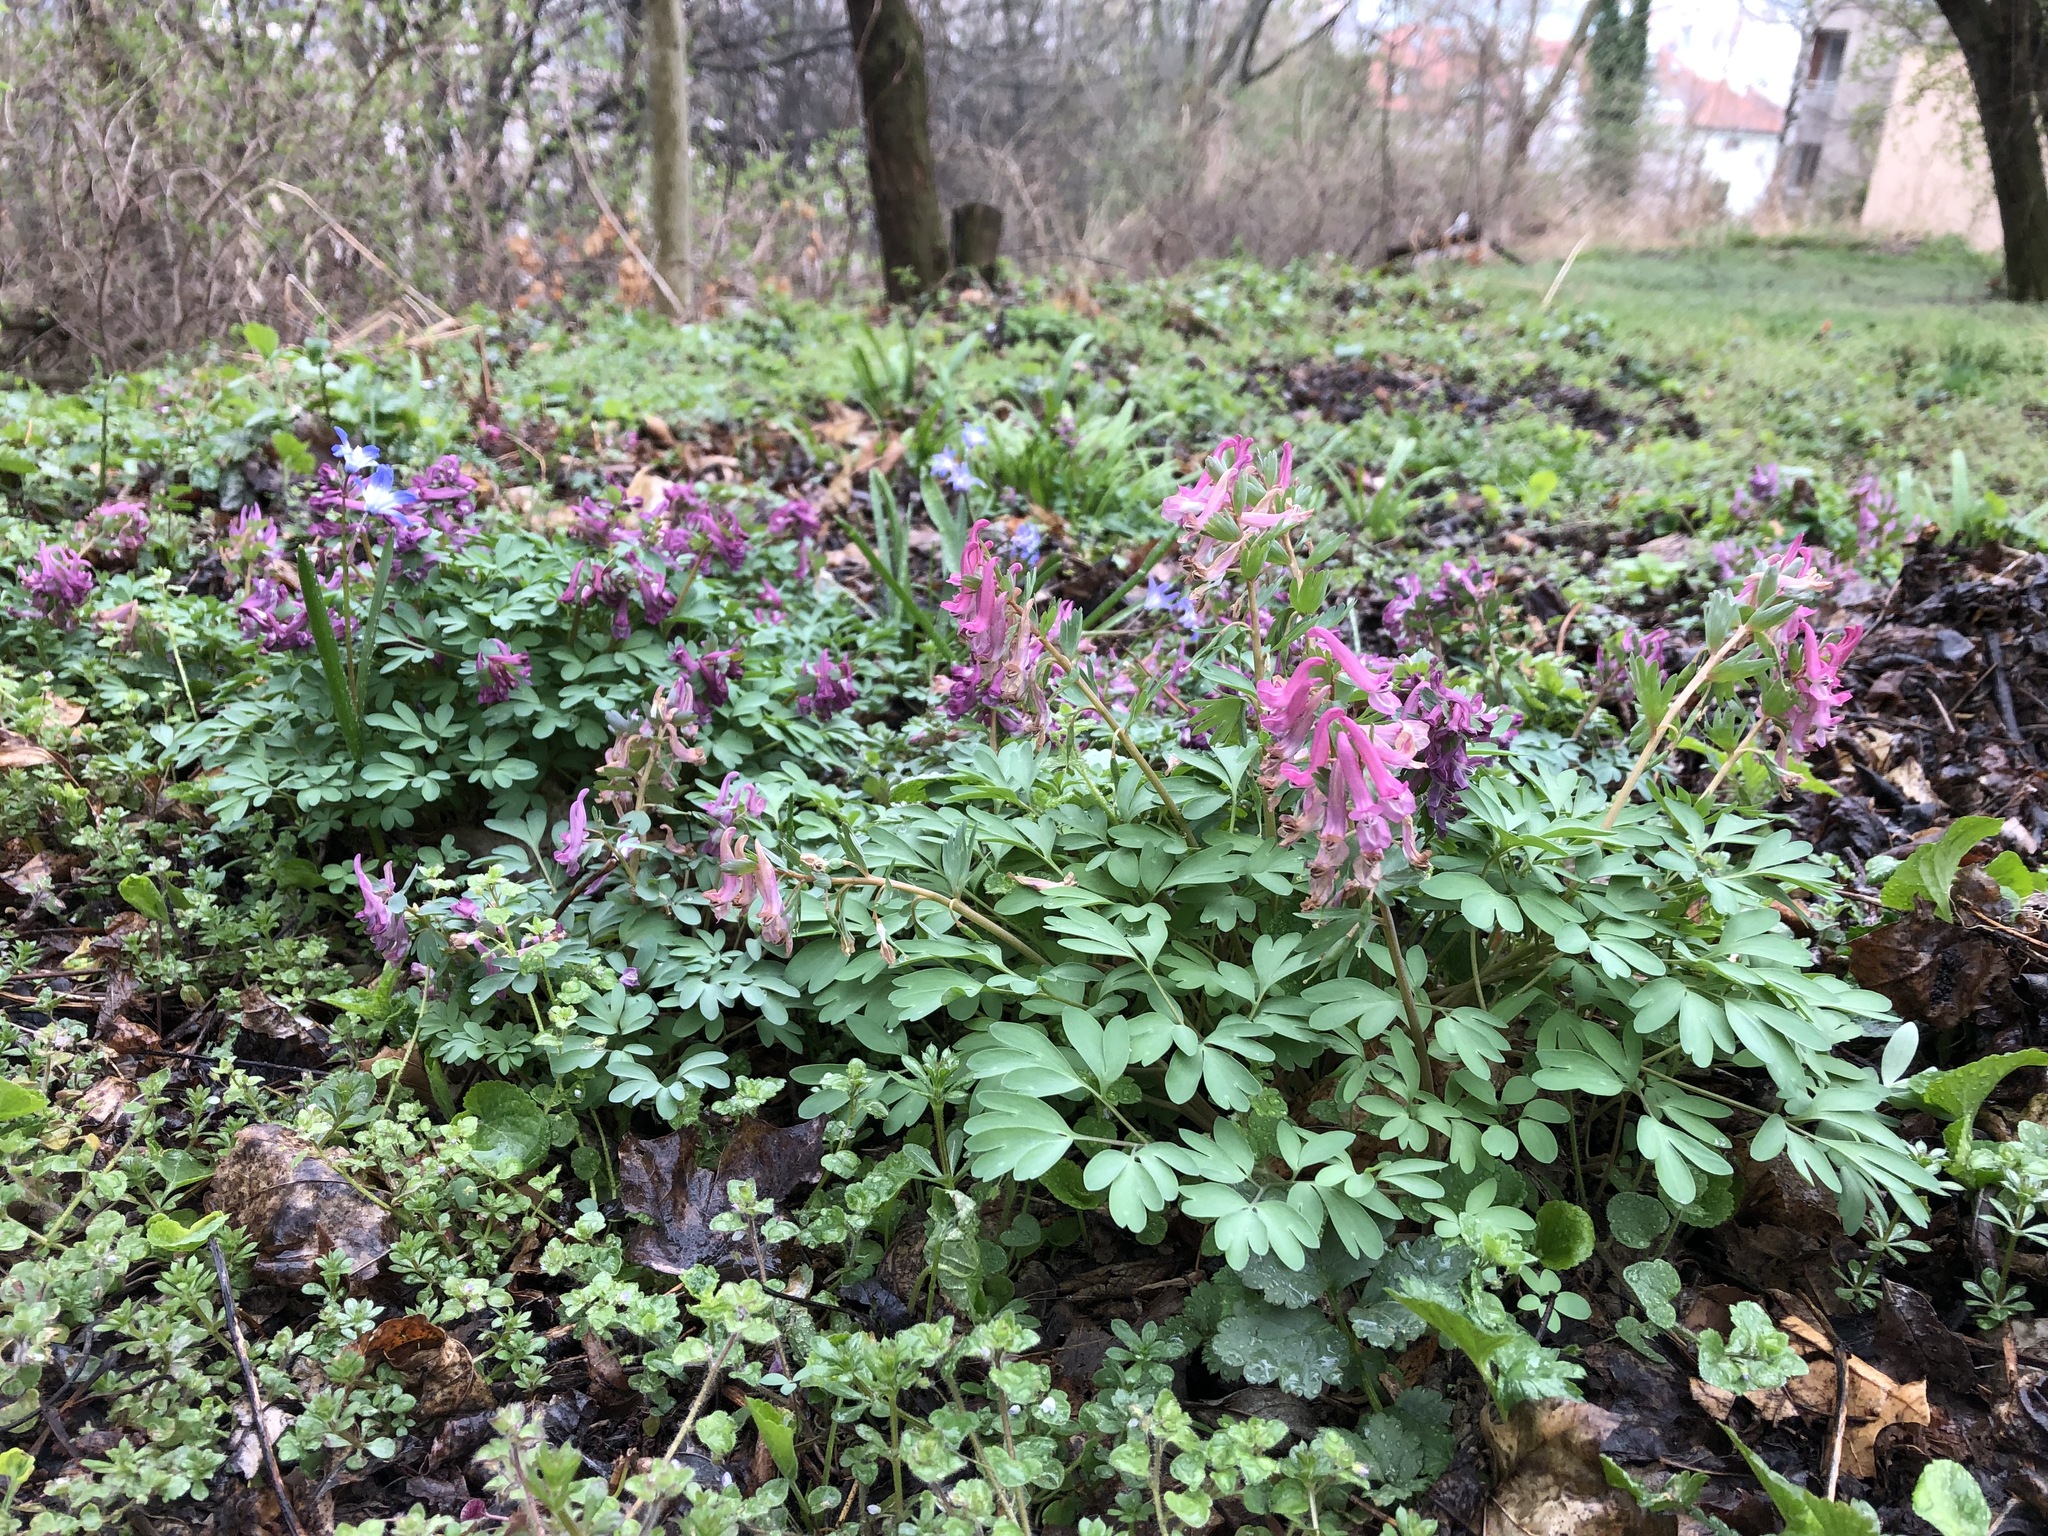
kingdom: Plantae
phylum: Tracheophyta
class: Magnoliopsida
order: Ranunculales
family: Papaveraceae
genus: Corydalis
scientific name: Corydalis solida
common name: Bird-in-a-bush
